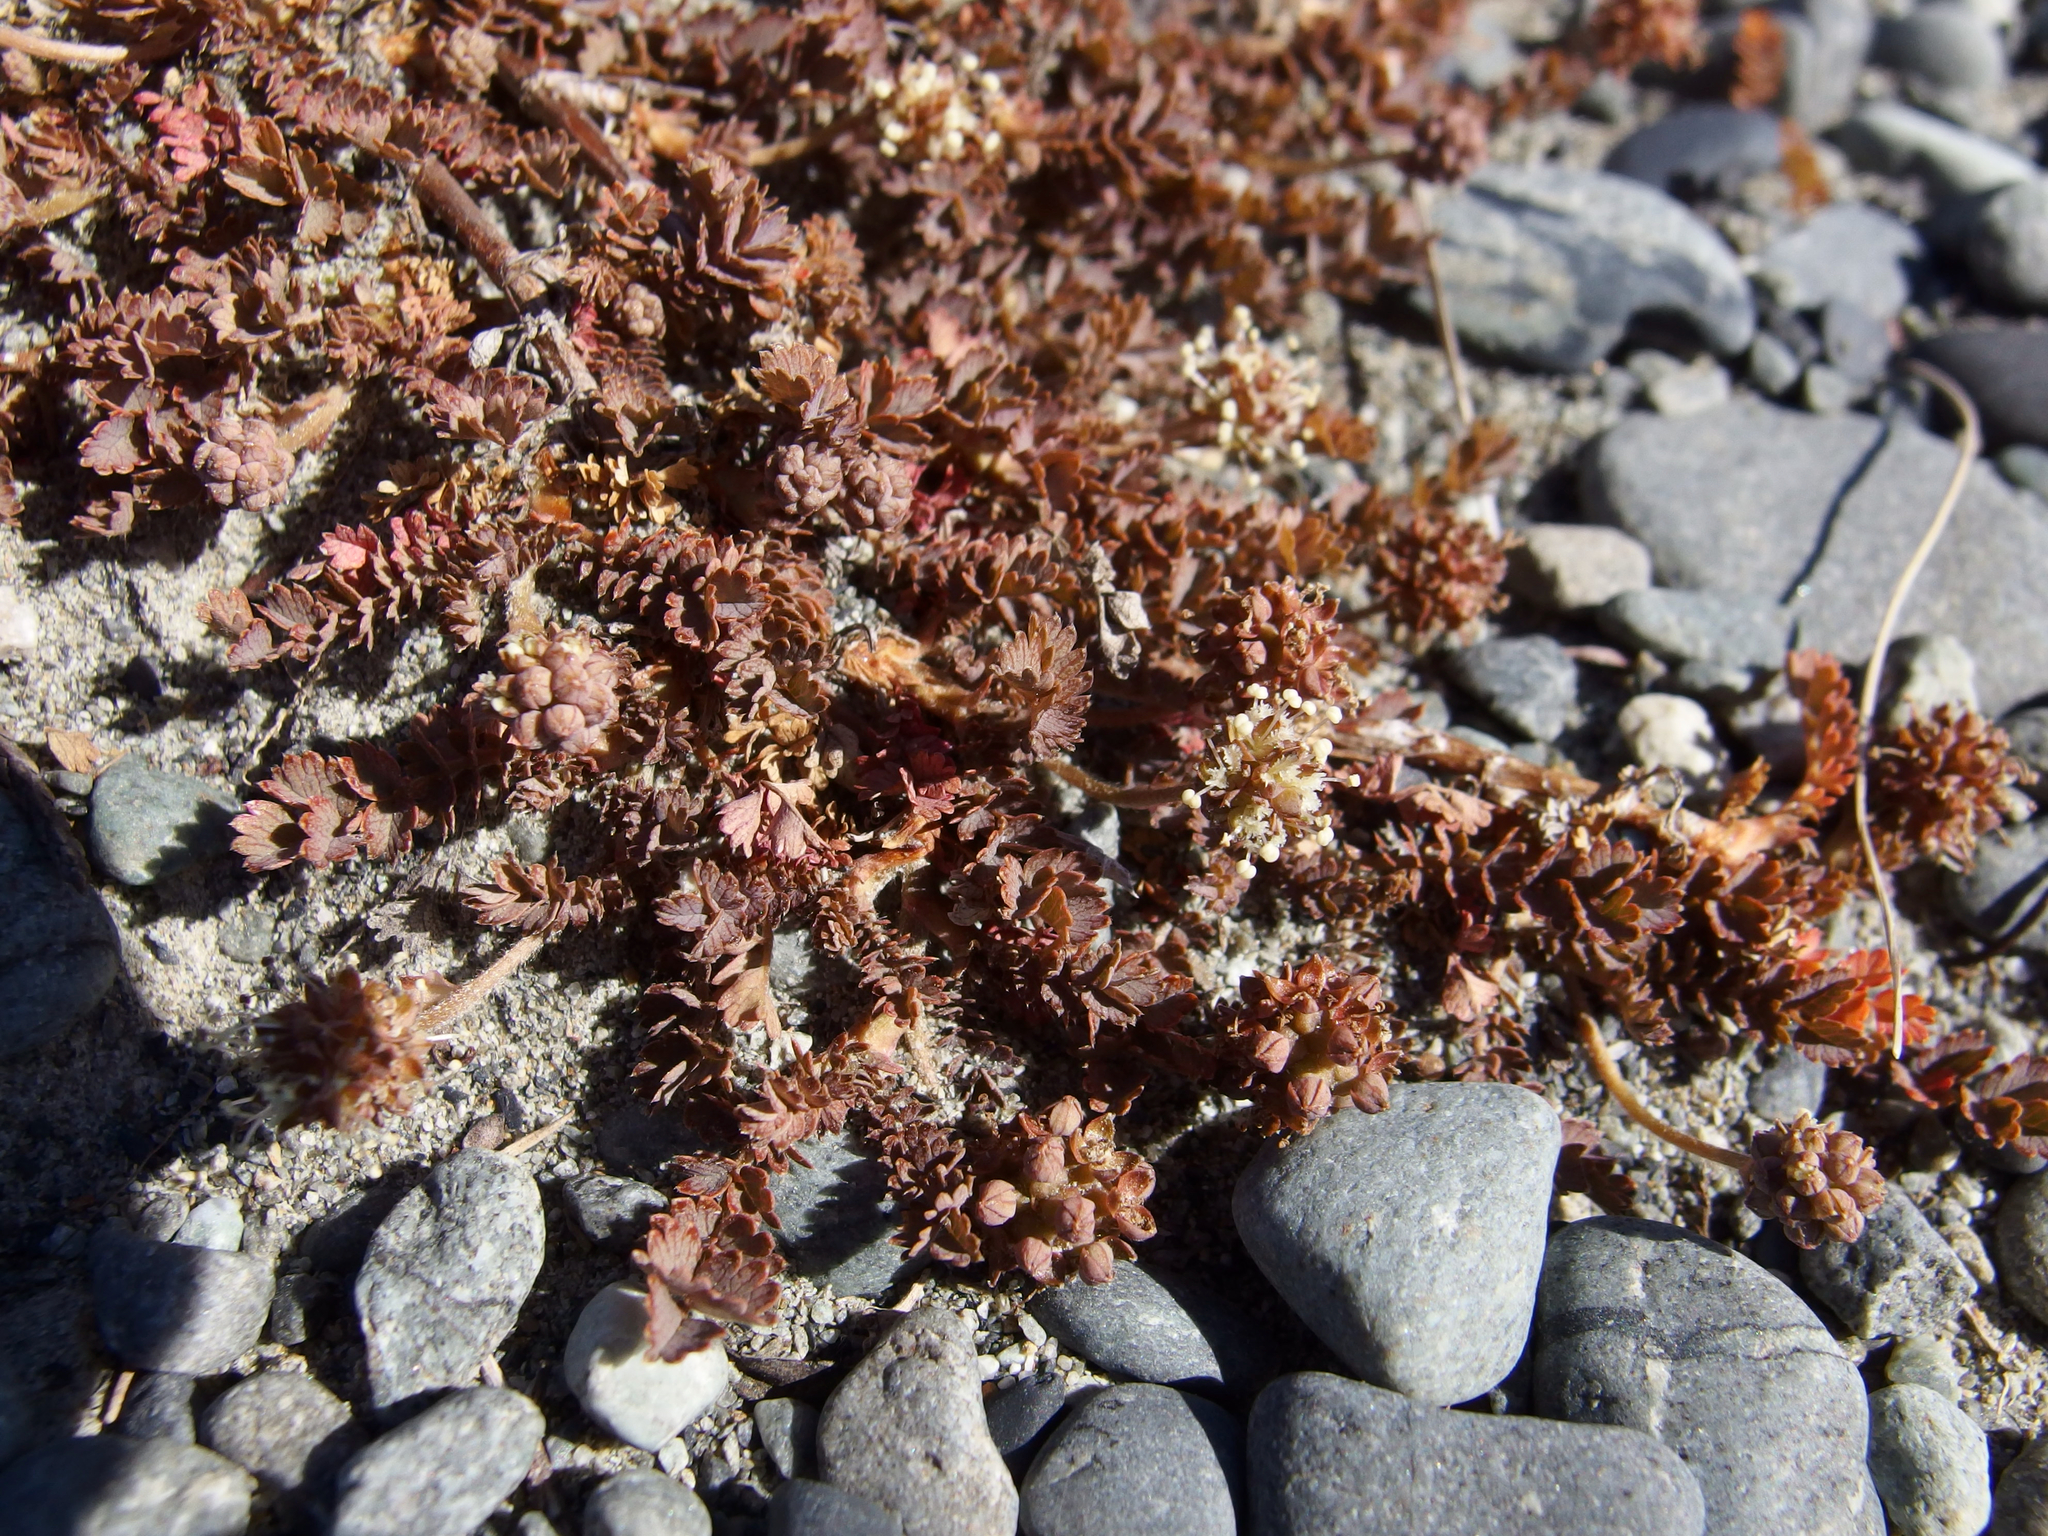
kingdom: Plantae
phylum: Tracheophyta
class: Magnoliopsida
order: Rosales
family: Rosaceae
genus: Acaena
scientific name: Acaena inermis
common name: Spineless acaena
